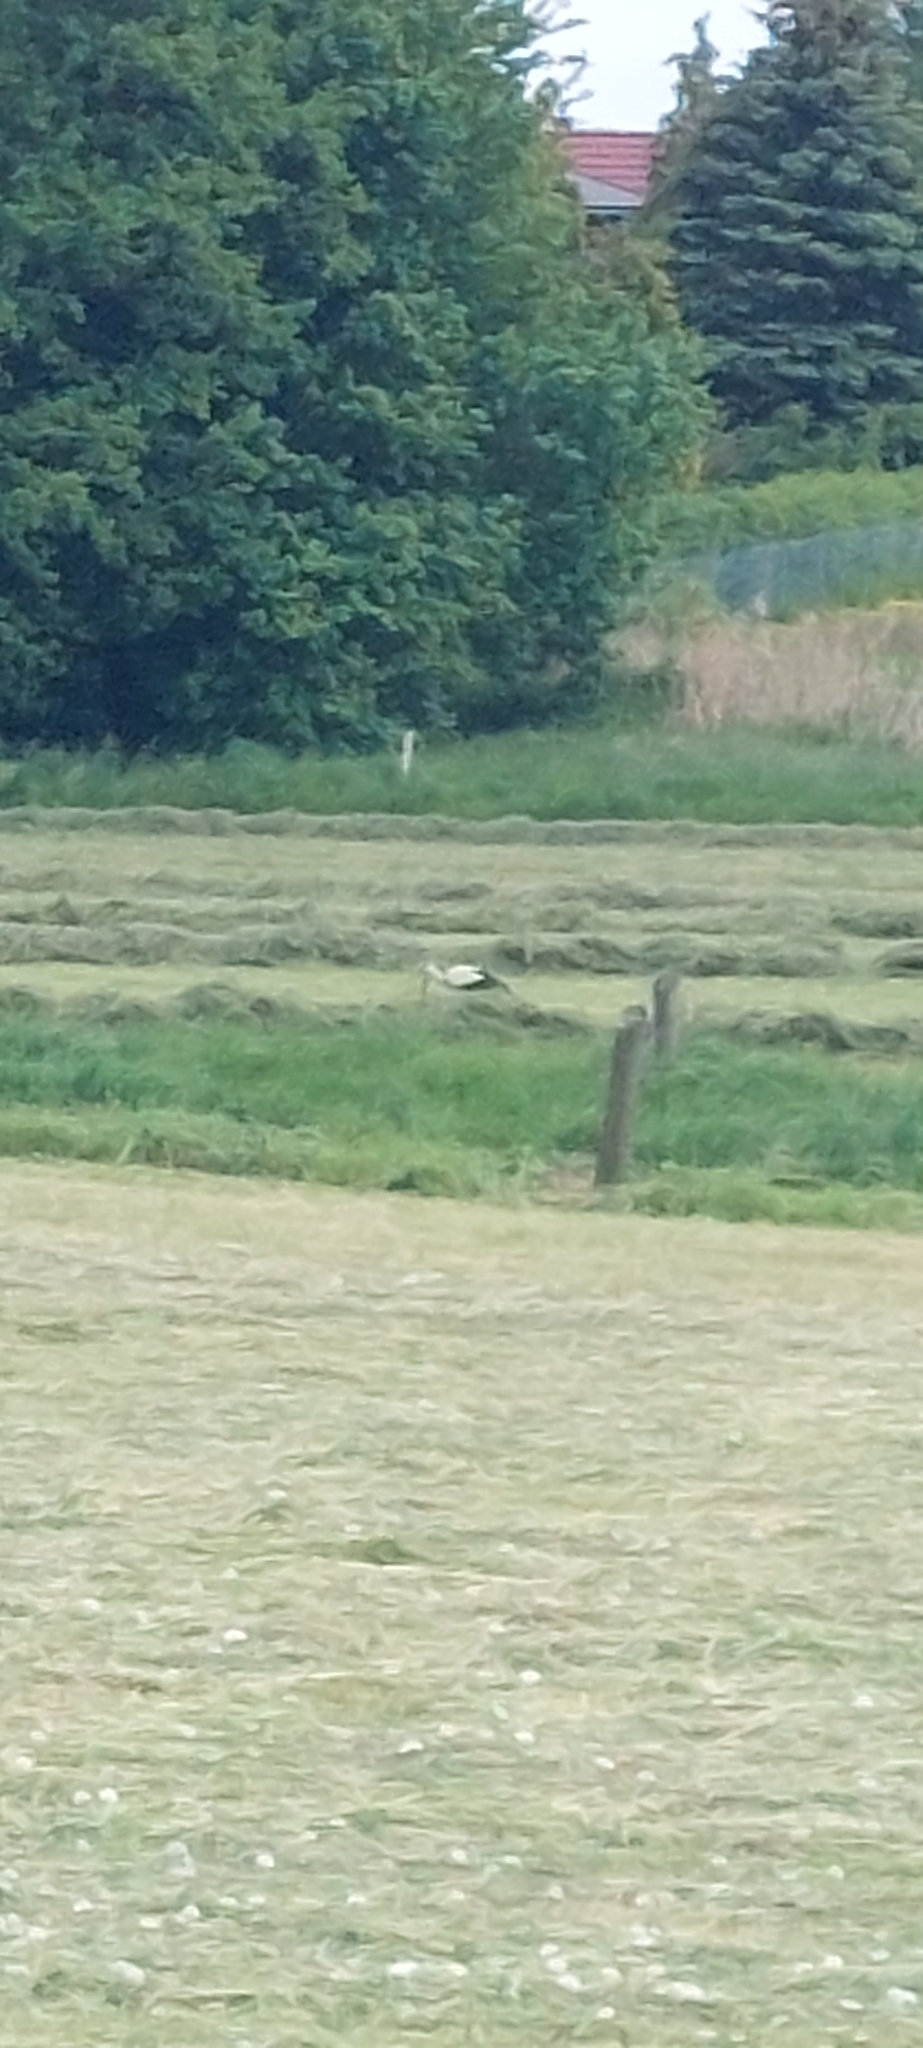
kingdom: Animalia
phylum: Chordata
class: Aves
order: Ciconiiformes
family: Ciconiidae
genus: Ciconia
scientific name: Ciconia ciconia
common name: White stork
